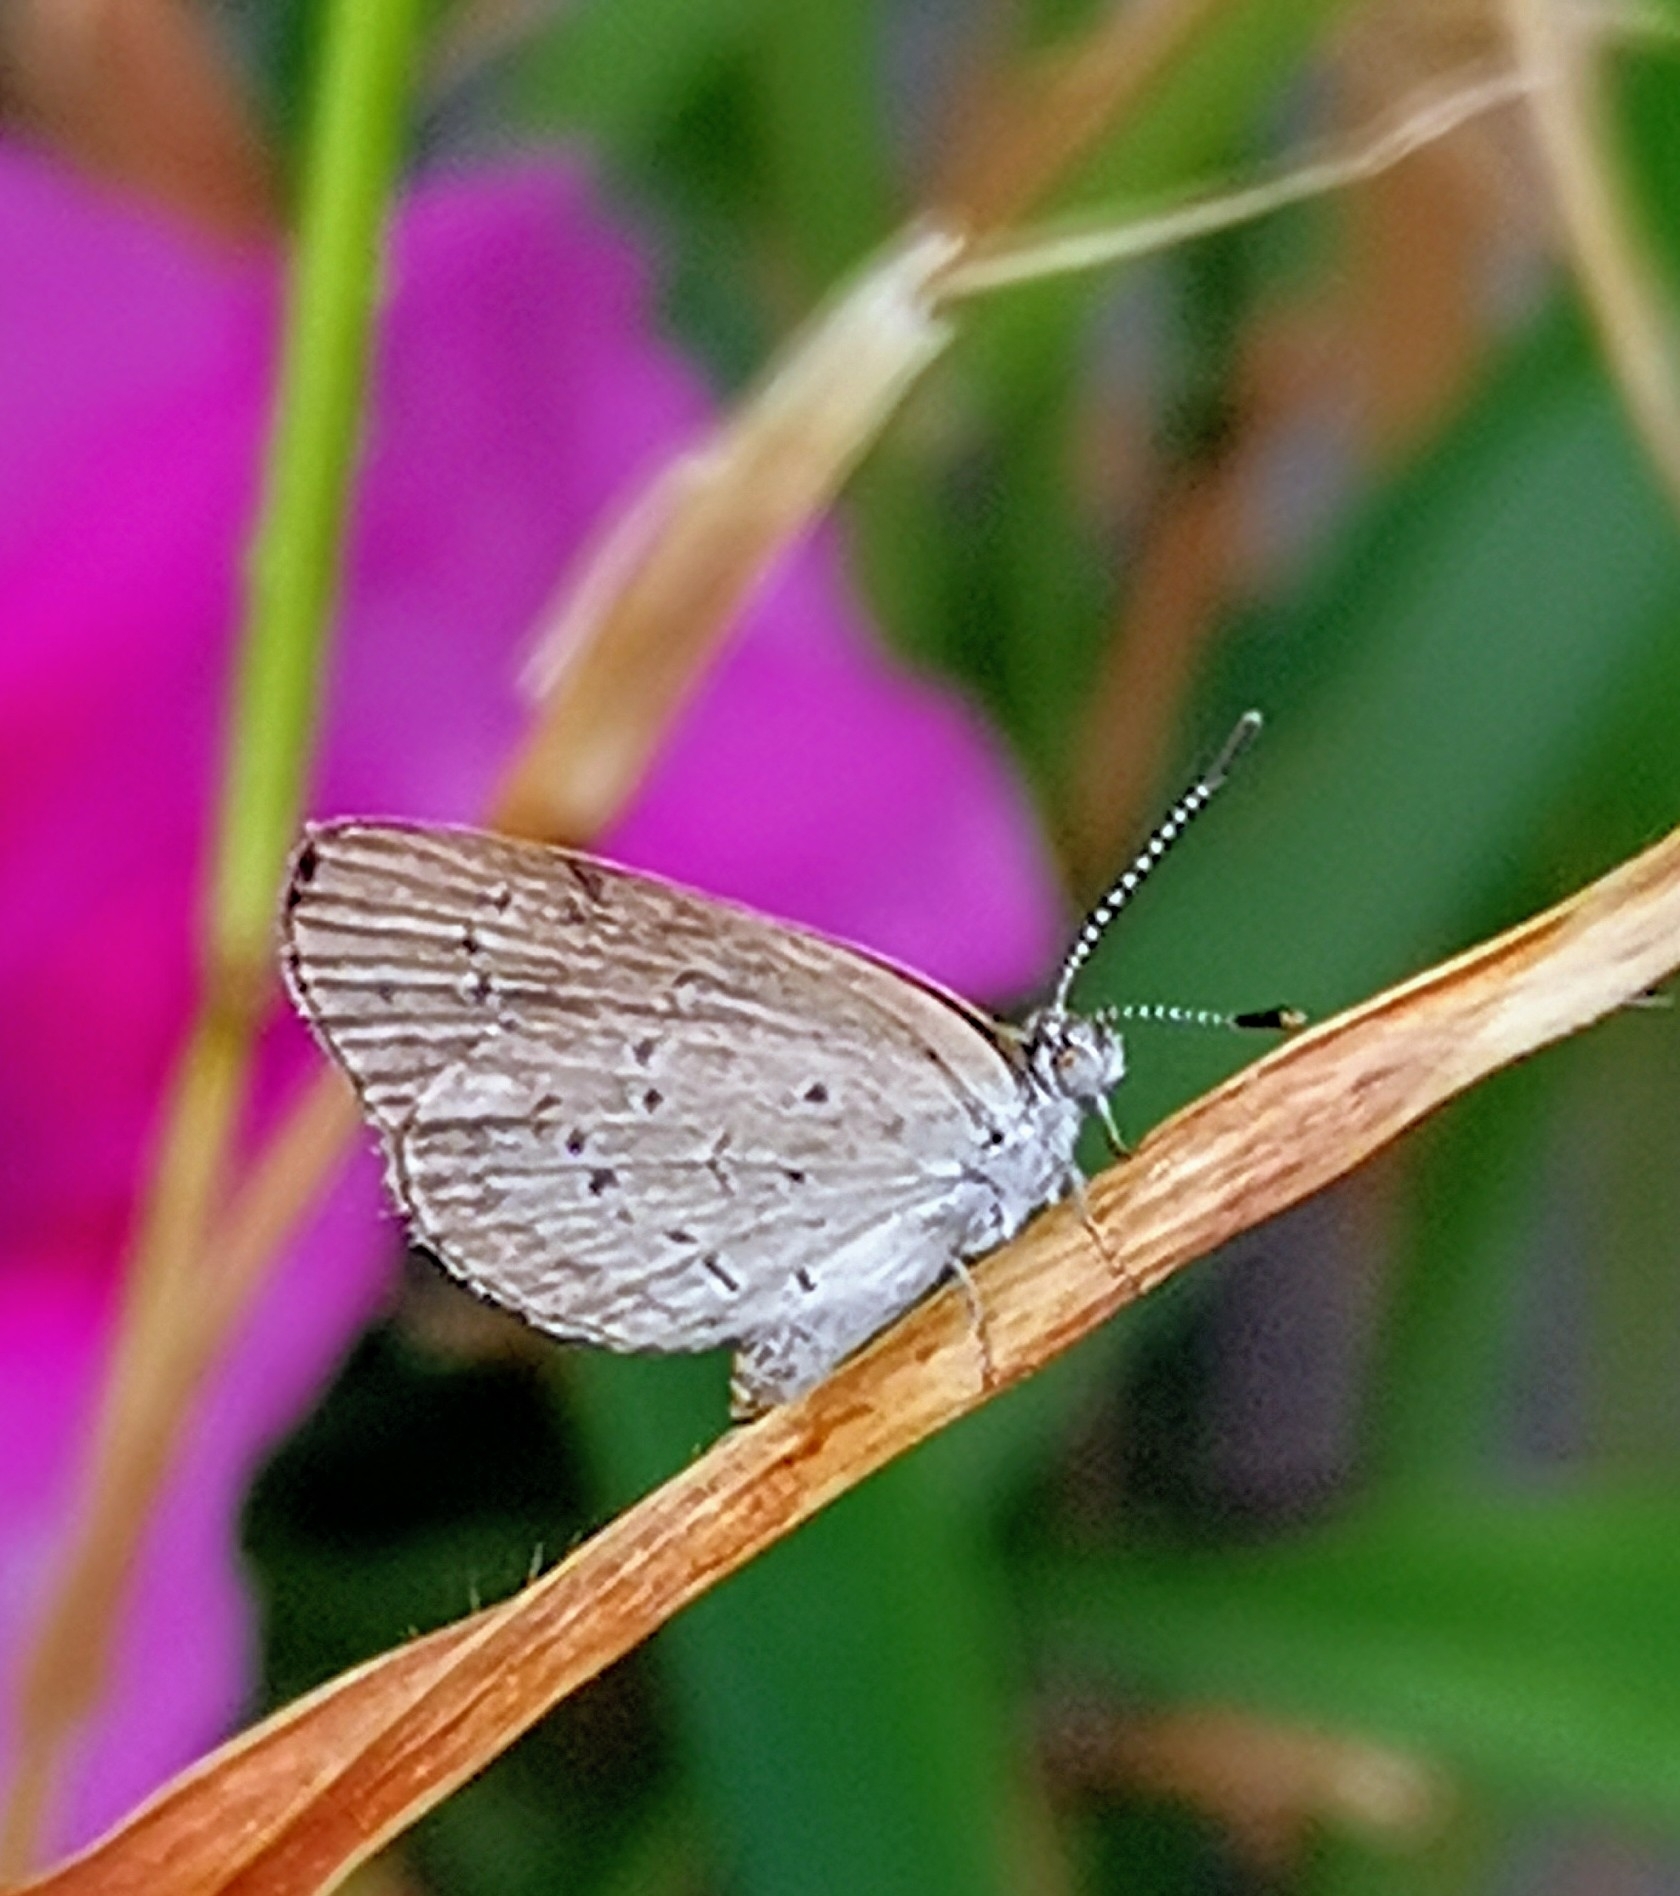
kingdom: Animalia
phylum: Arthropoda
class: Insecta
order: Lepidoptera
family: Lycaenidae
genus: Zizina
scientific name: Zizina otis
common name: Lesser grass blue
